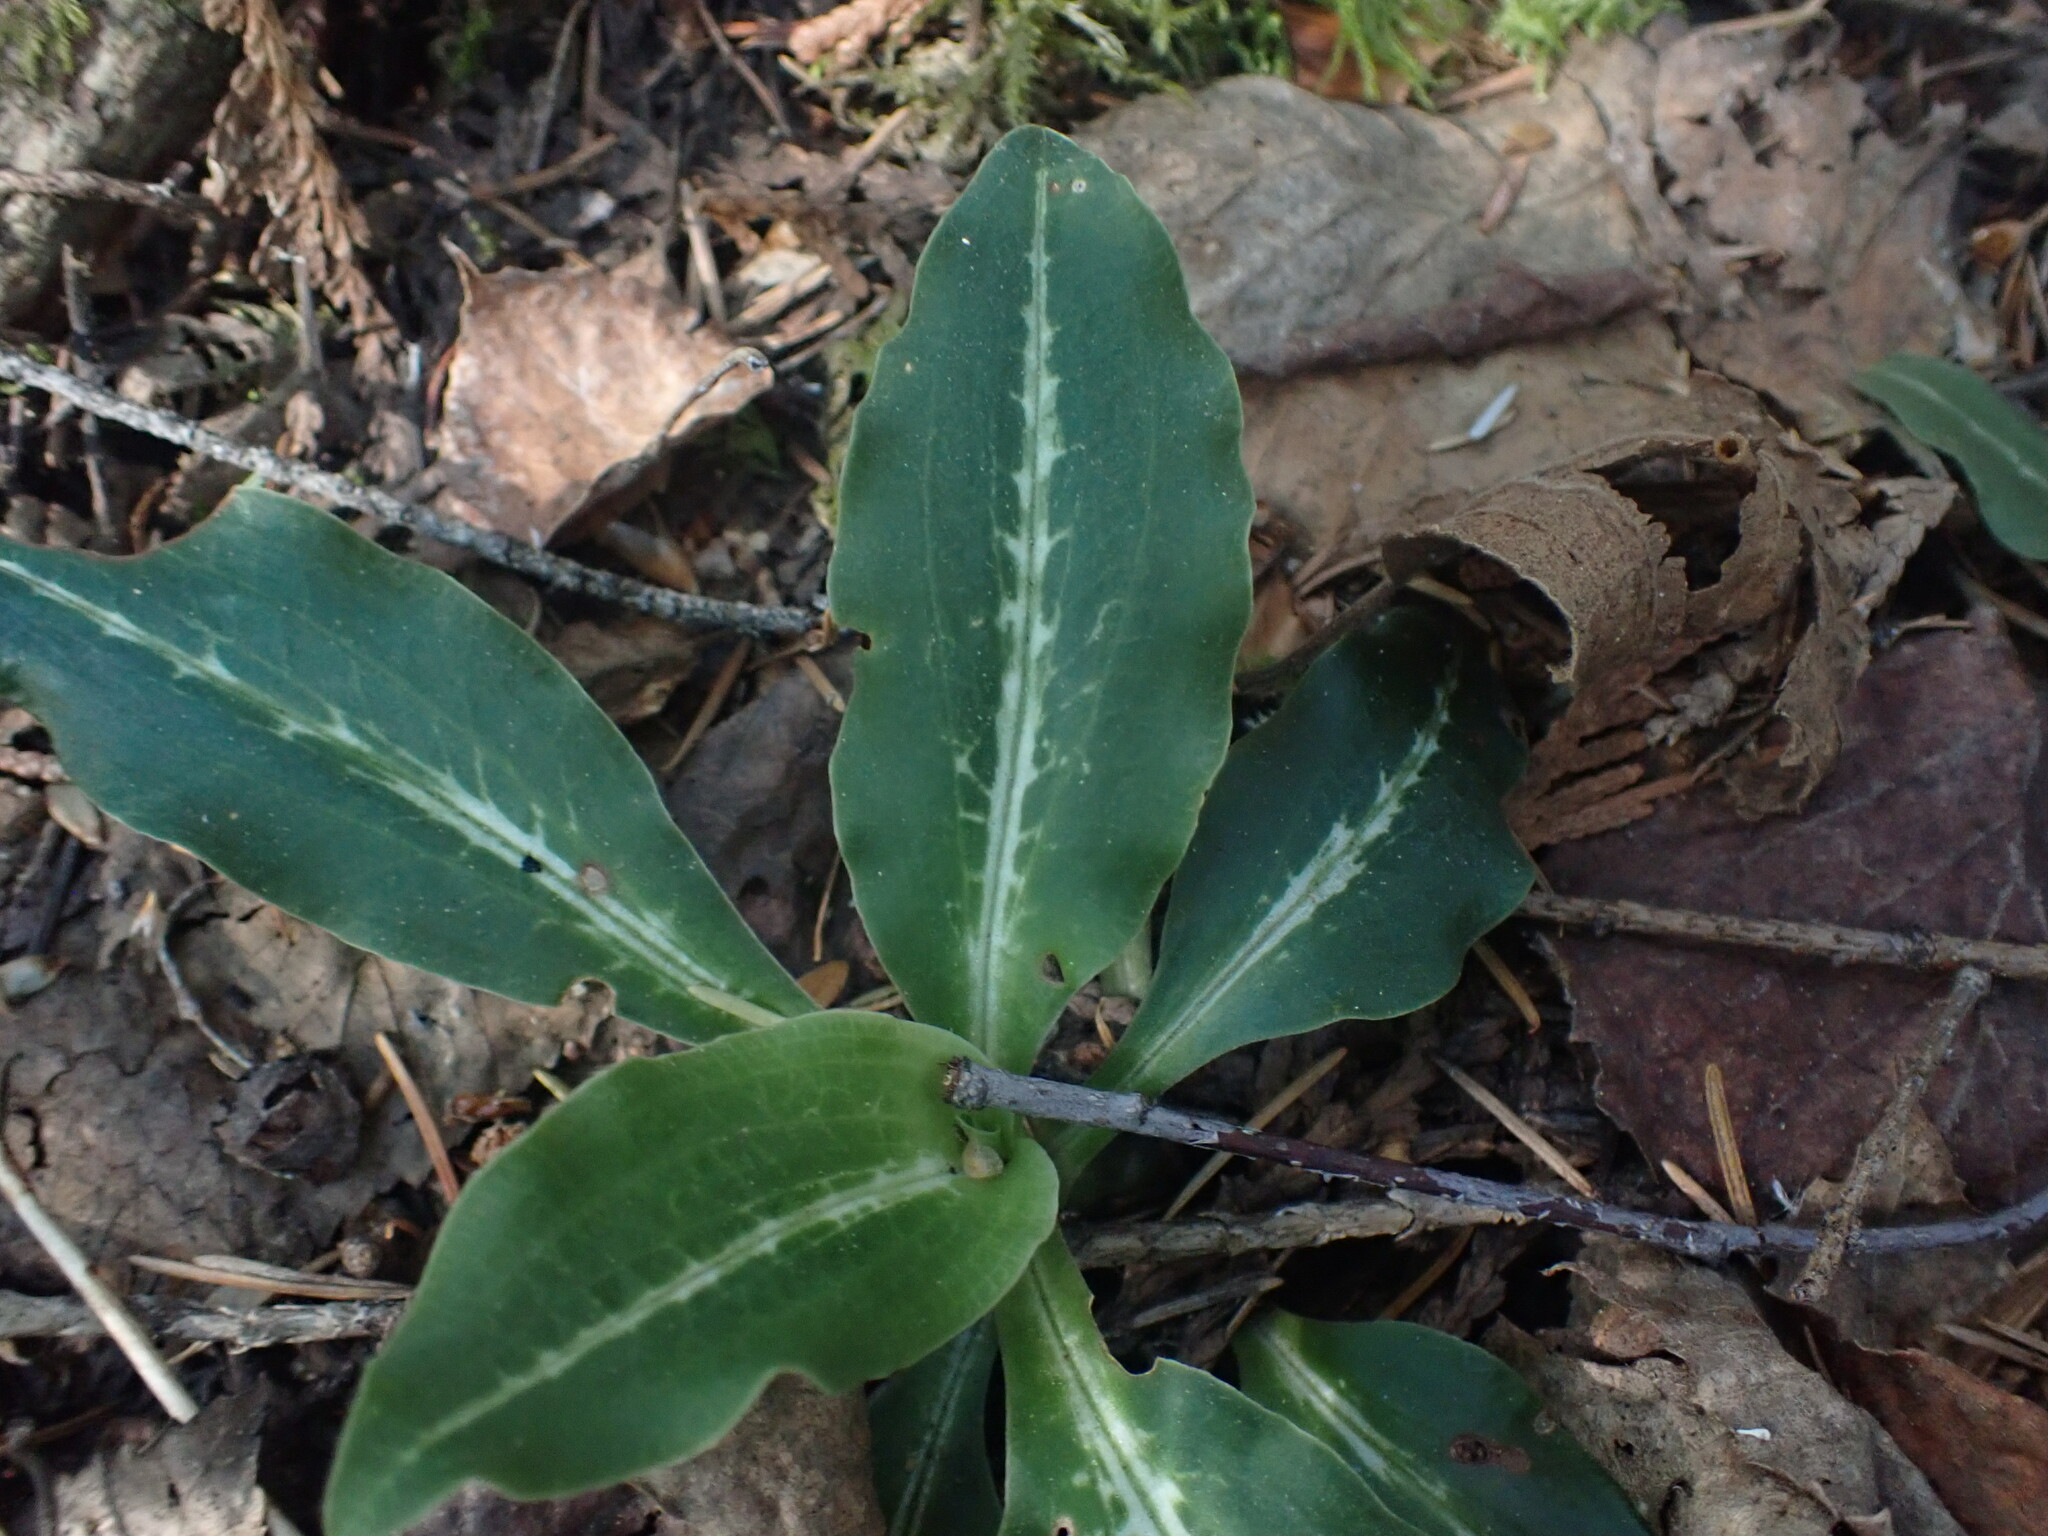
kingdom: Plantae
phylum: Tracheophyta
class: Liliopsida
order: Asparagales
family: Orchidaceae
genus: Goodyera
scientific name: Goodyera oblongifolia
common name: Giant rattlesnake-plantain
